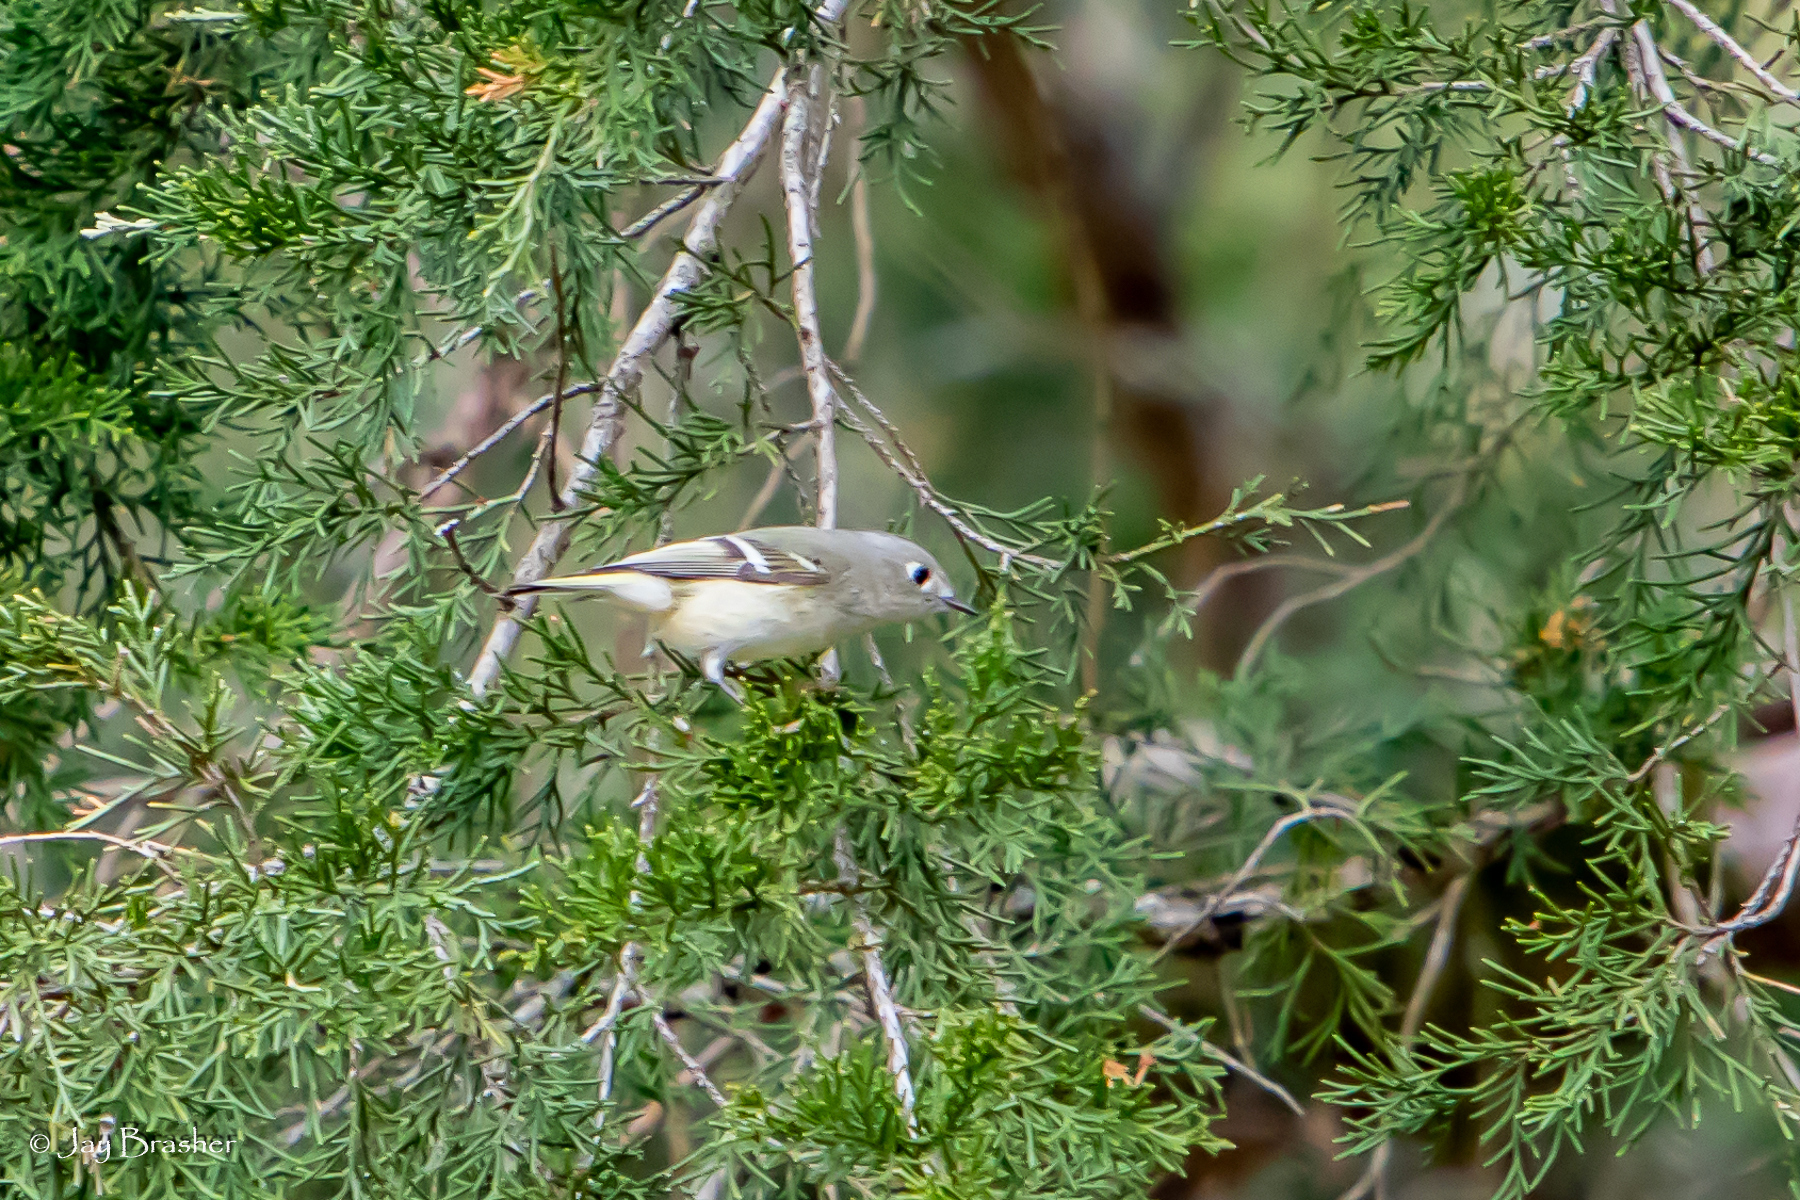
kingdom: Animalia
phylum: Chordata
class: Aves
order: Passeriformes
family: Regulidae
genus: Regulus
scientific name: Regulus calendula
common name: Ruby-crowned kinglet
